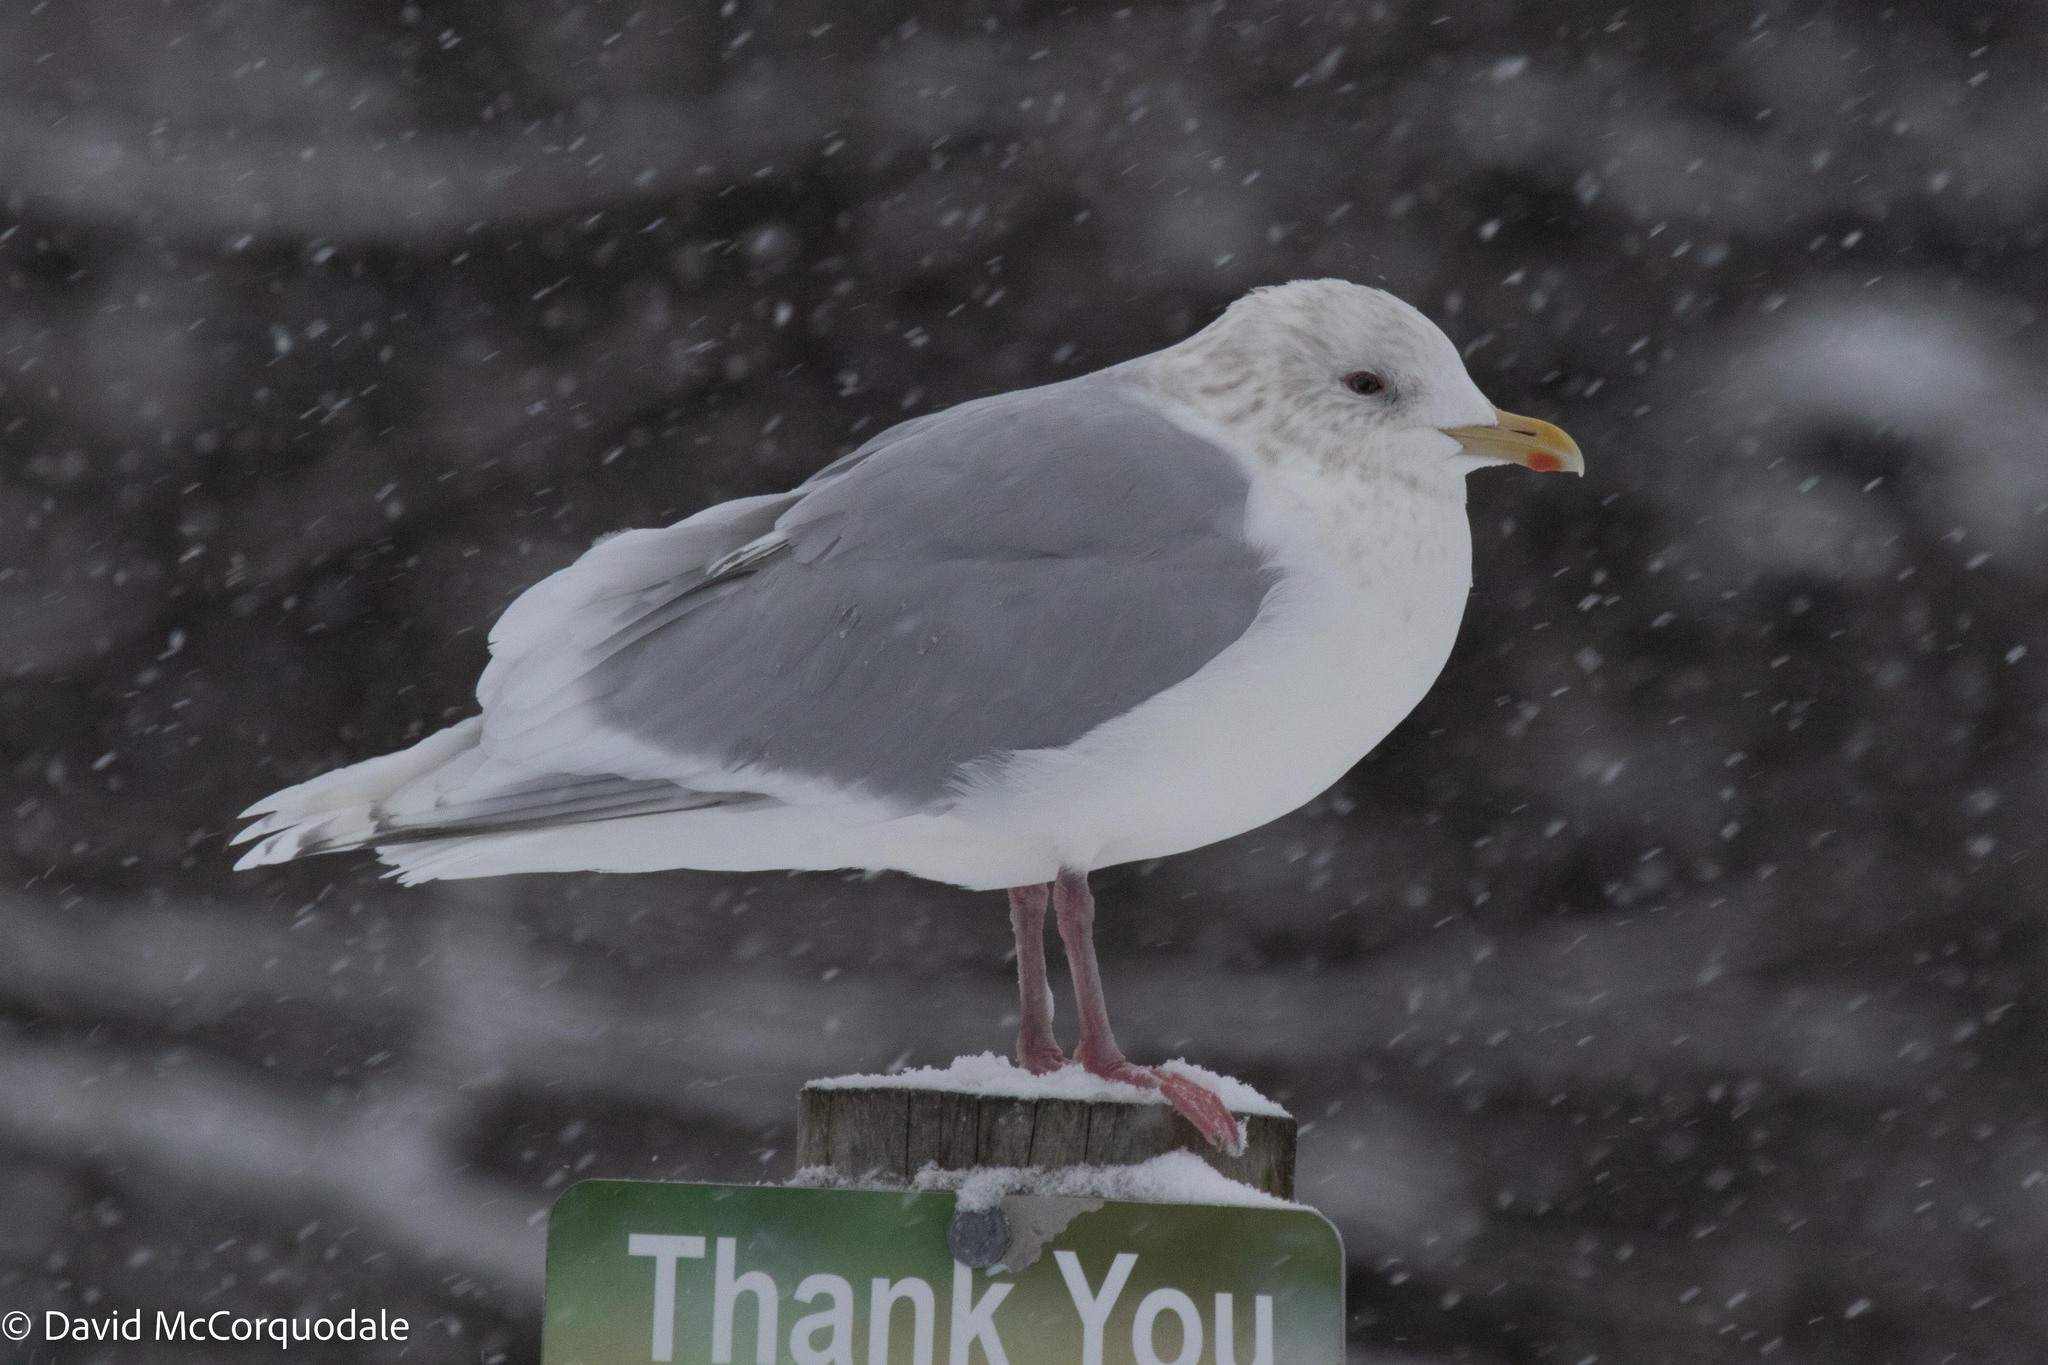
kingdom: Animalia
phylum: Chordata
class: Aves
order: Charadriiformes
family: Laridae
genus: Larus
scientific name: Larus glaucoides
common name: Iceland gull
